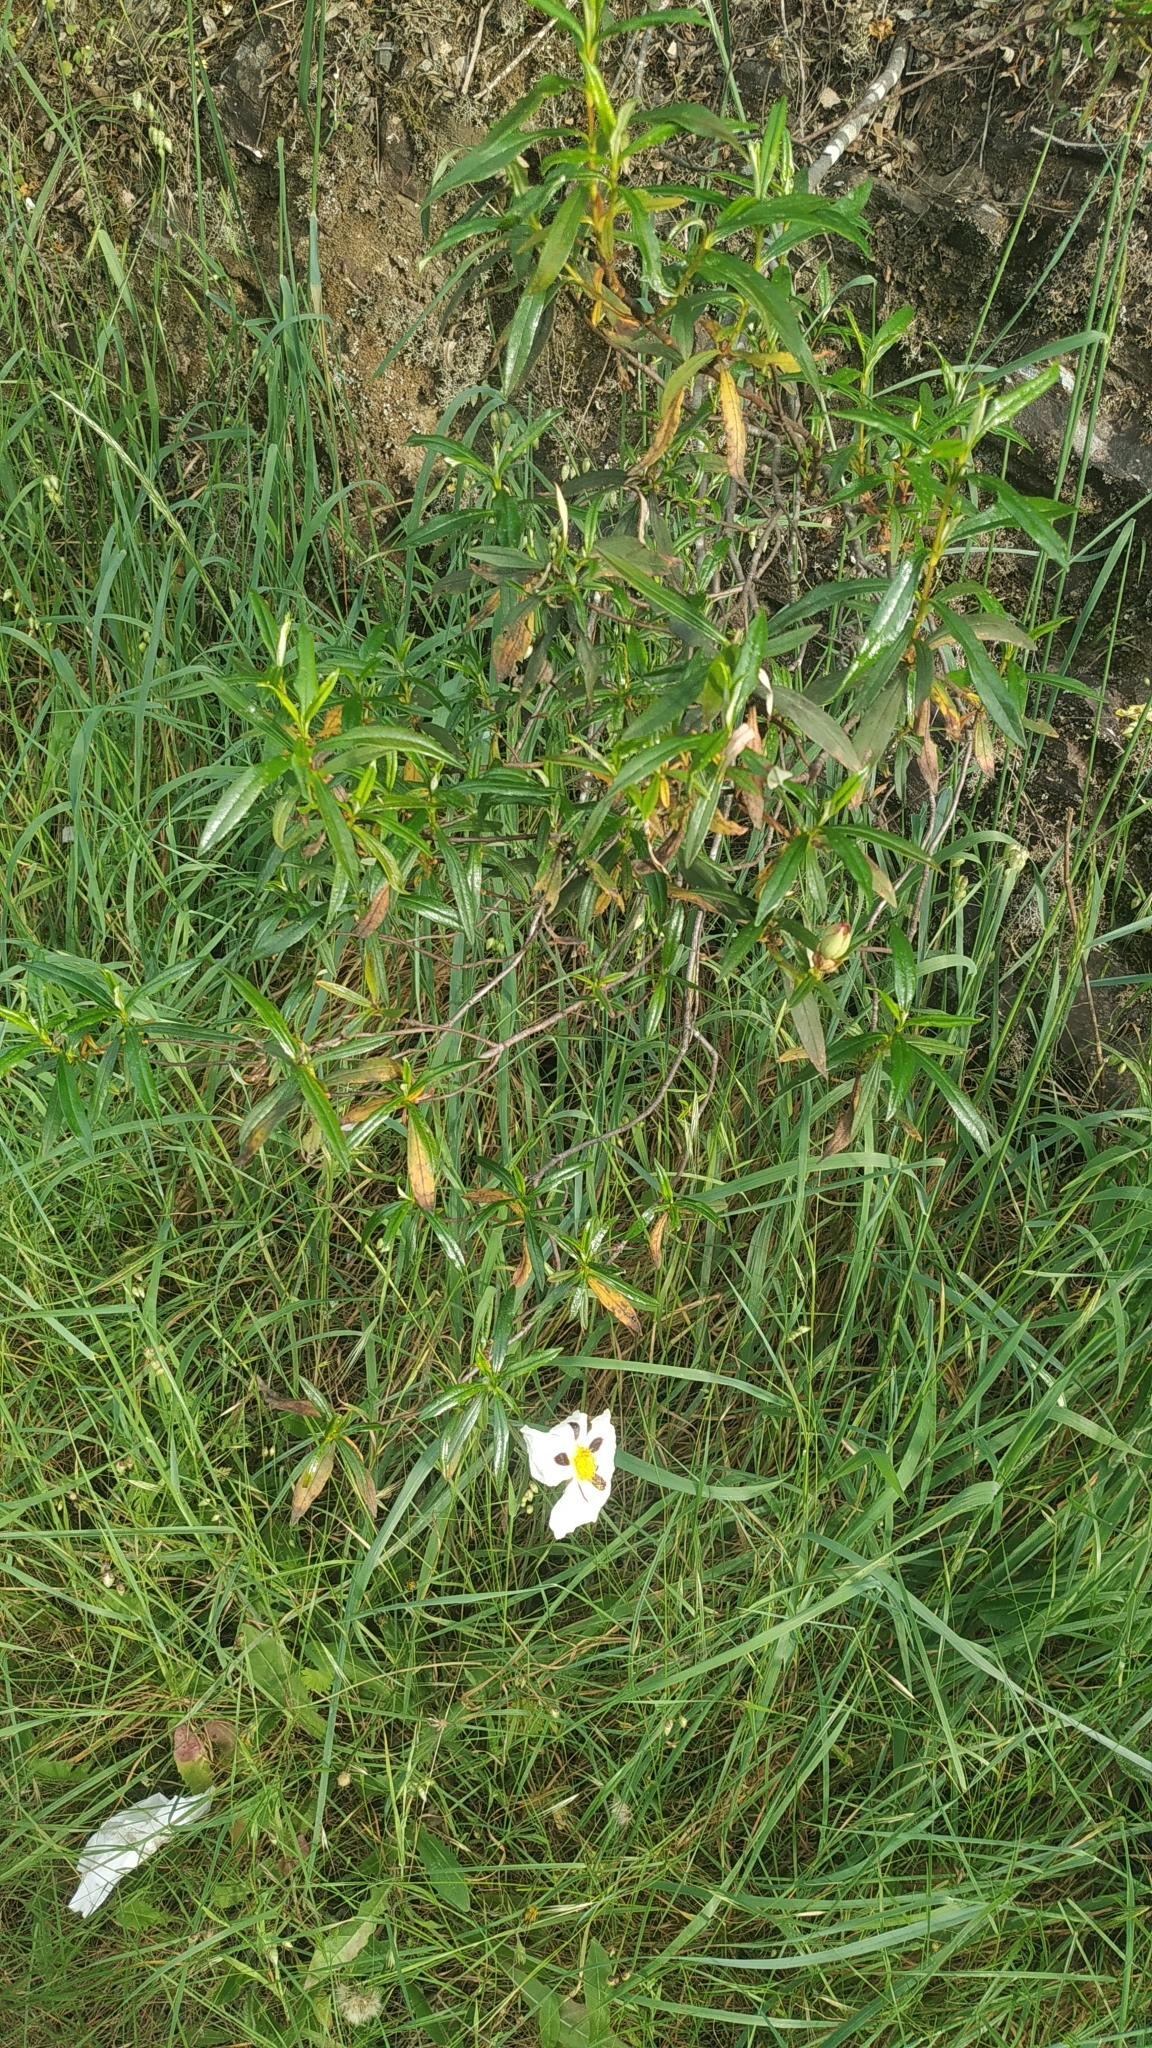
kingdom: Plantae
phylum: Tracheophyta
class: Magnoliopsida
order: Malvales
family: Cistaceae
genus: Cistus
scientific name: Cistus ladanifer
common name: Common gum cistus
